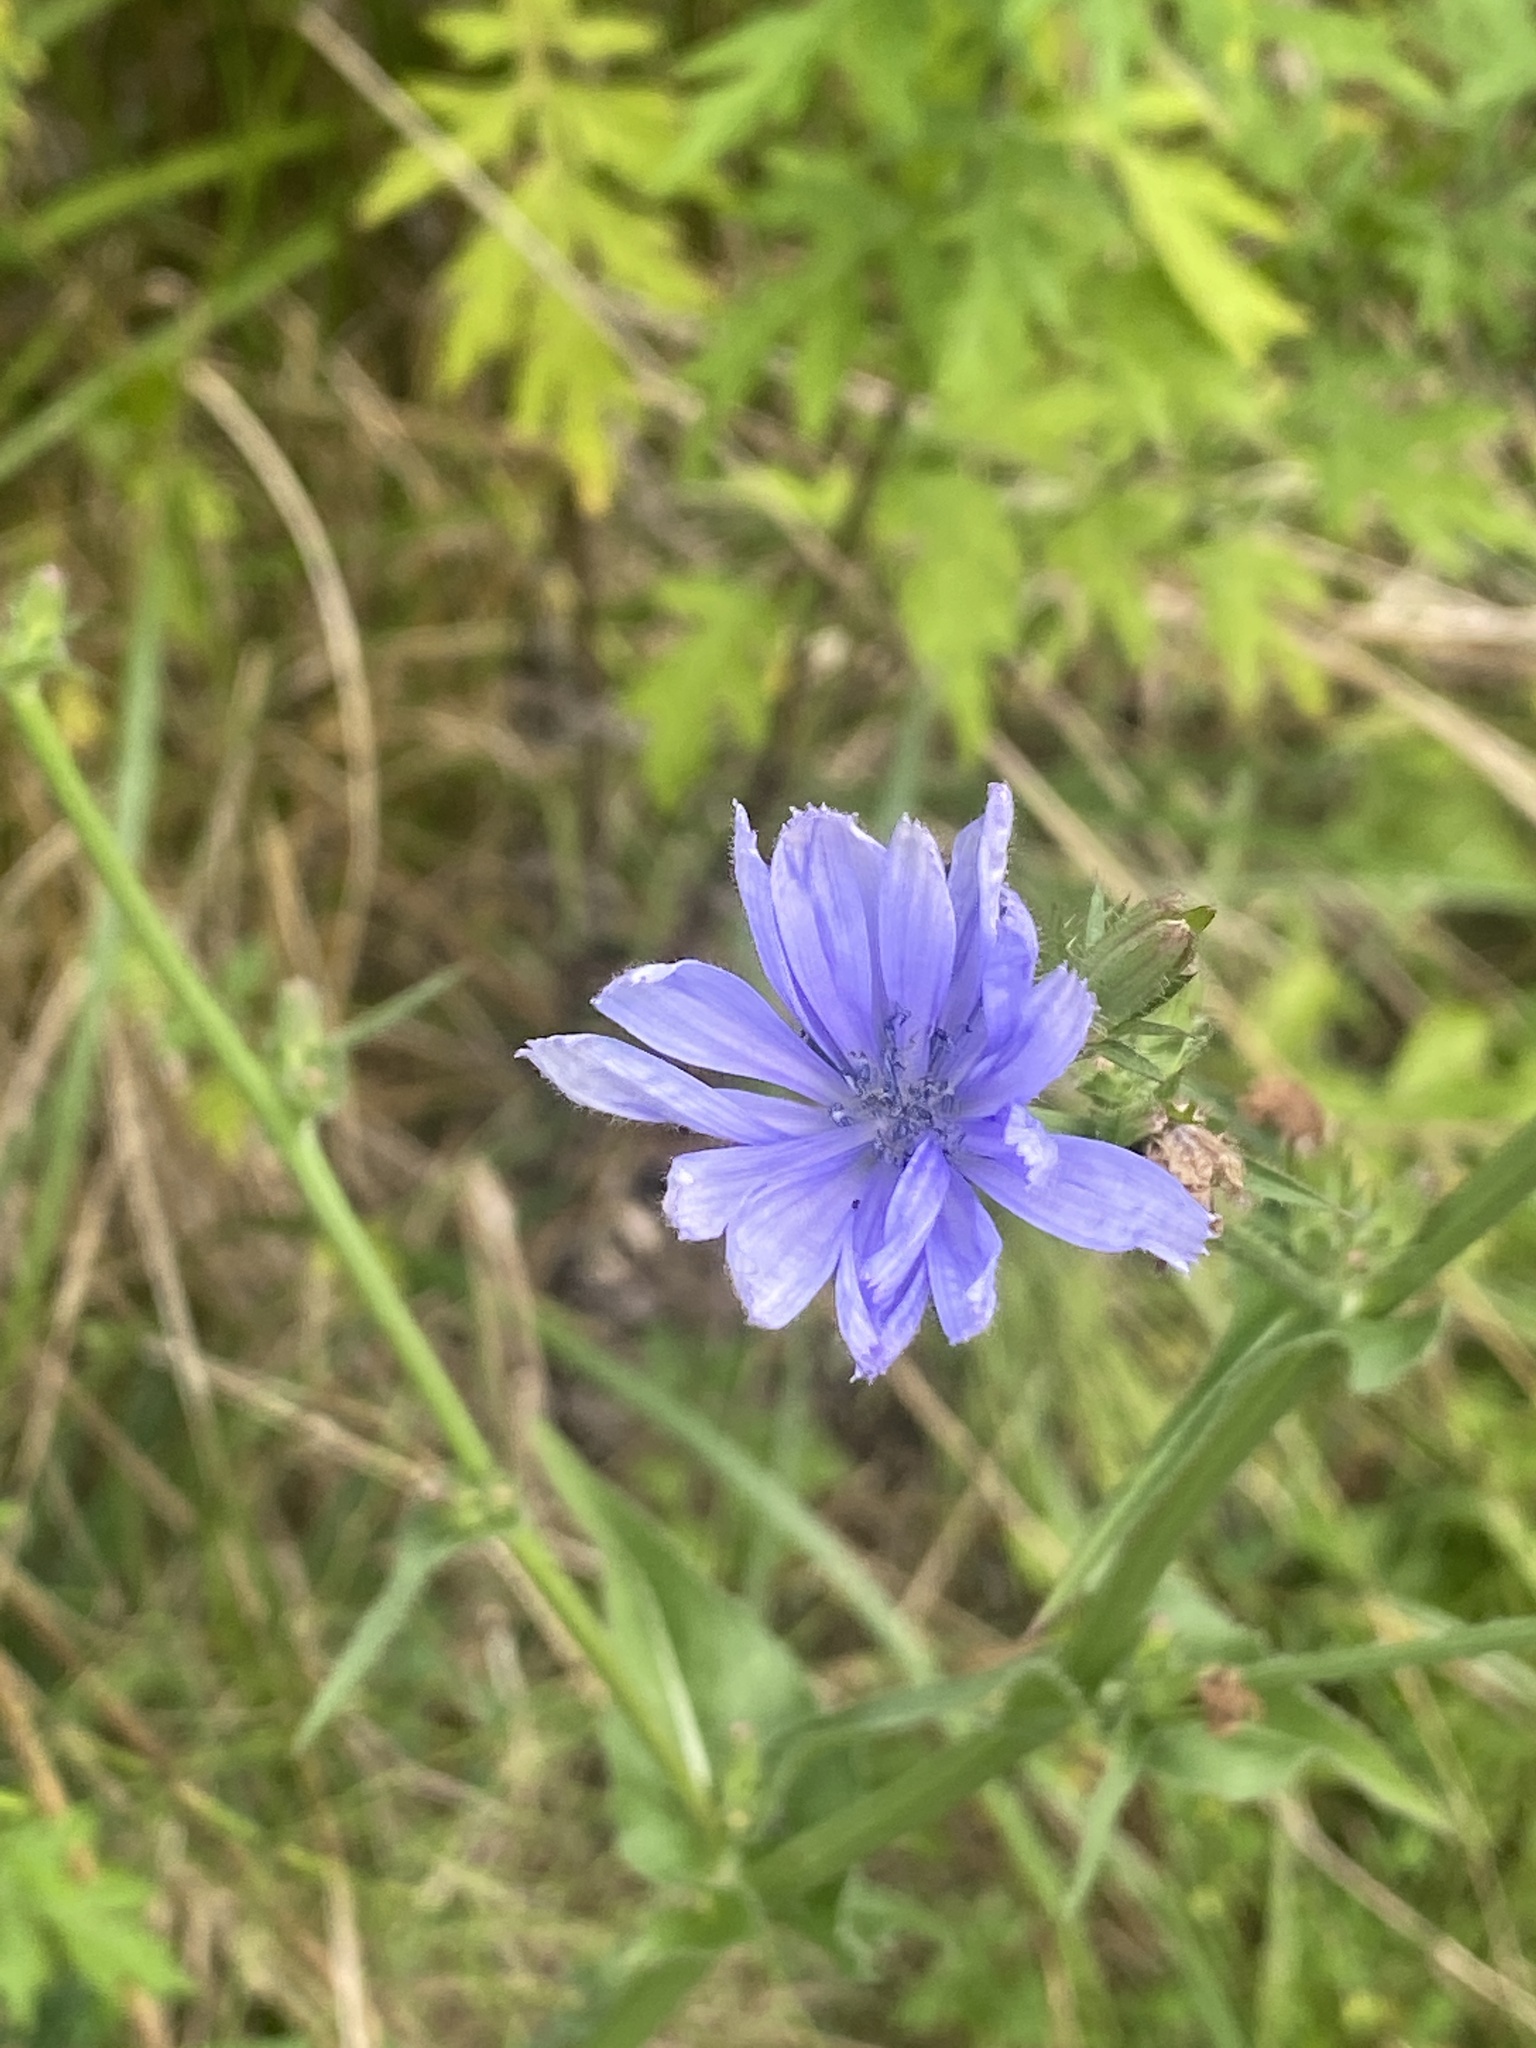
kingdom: Plantae
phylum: Tracheophyta
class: Magnoliopsida
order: Asterales
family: Asteraceae
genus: Cichorium
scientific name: Cichorium intybus
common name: Chicory
